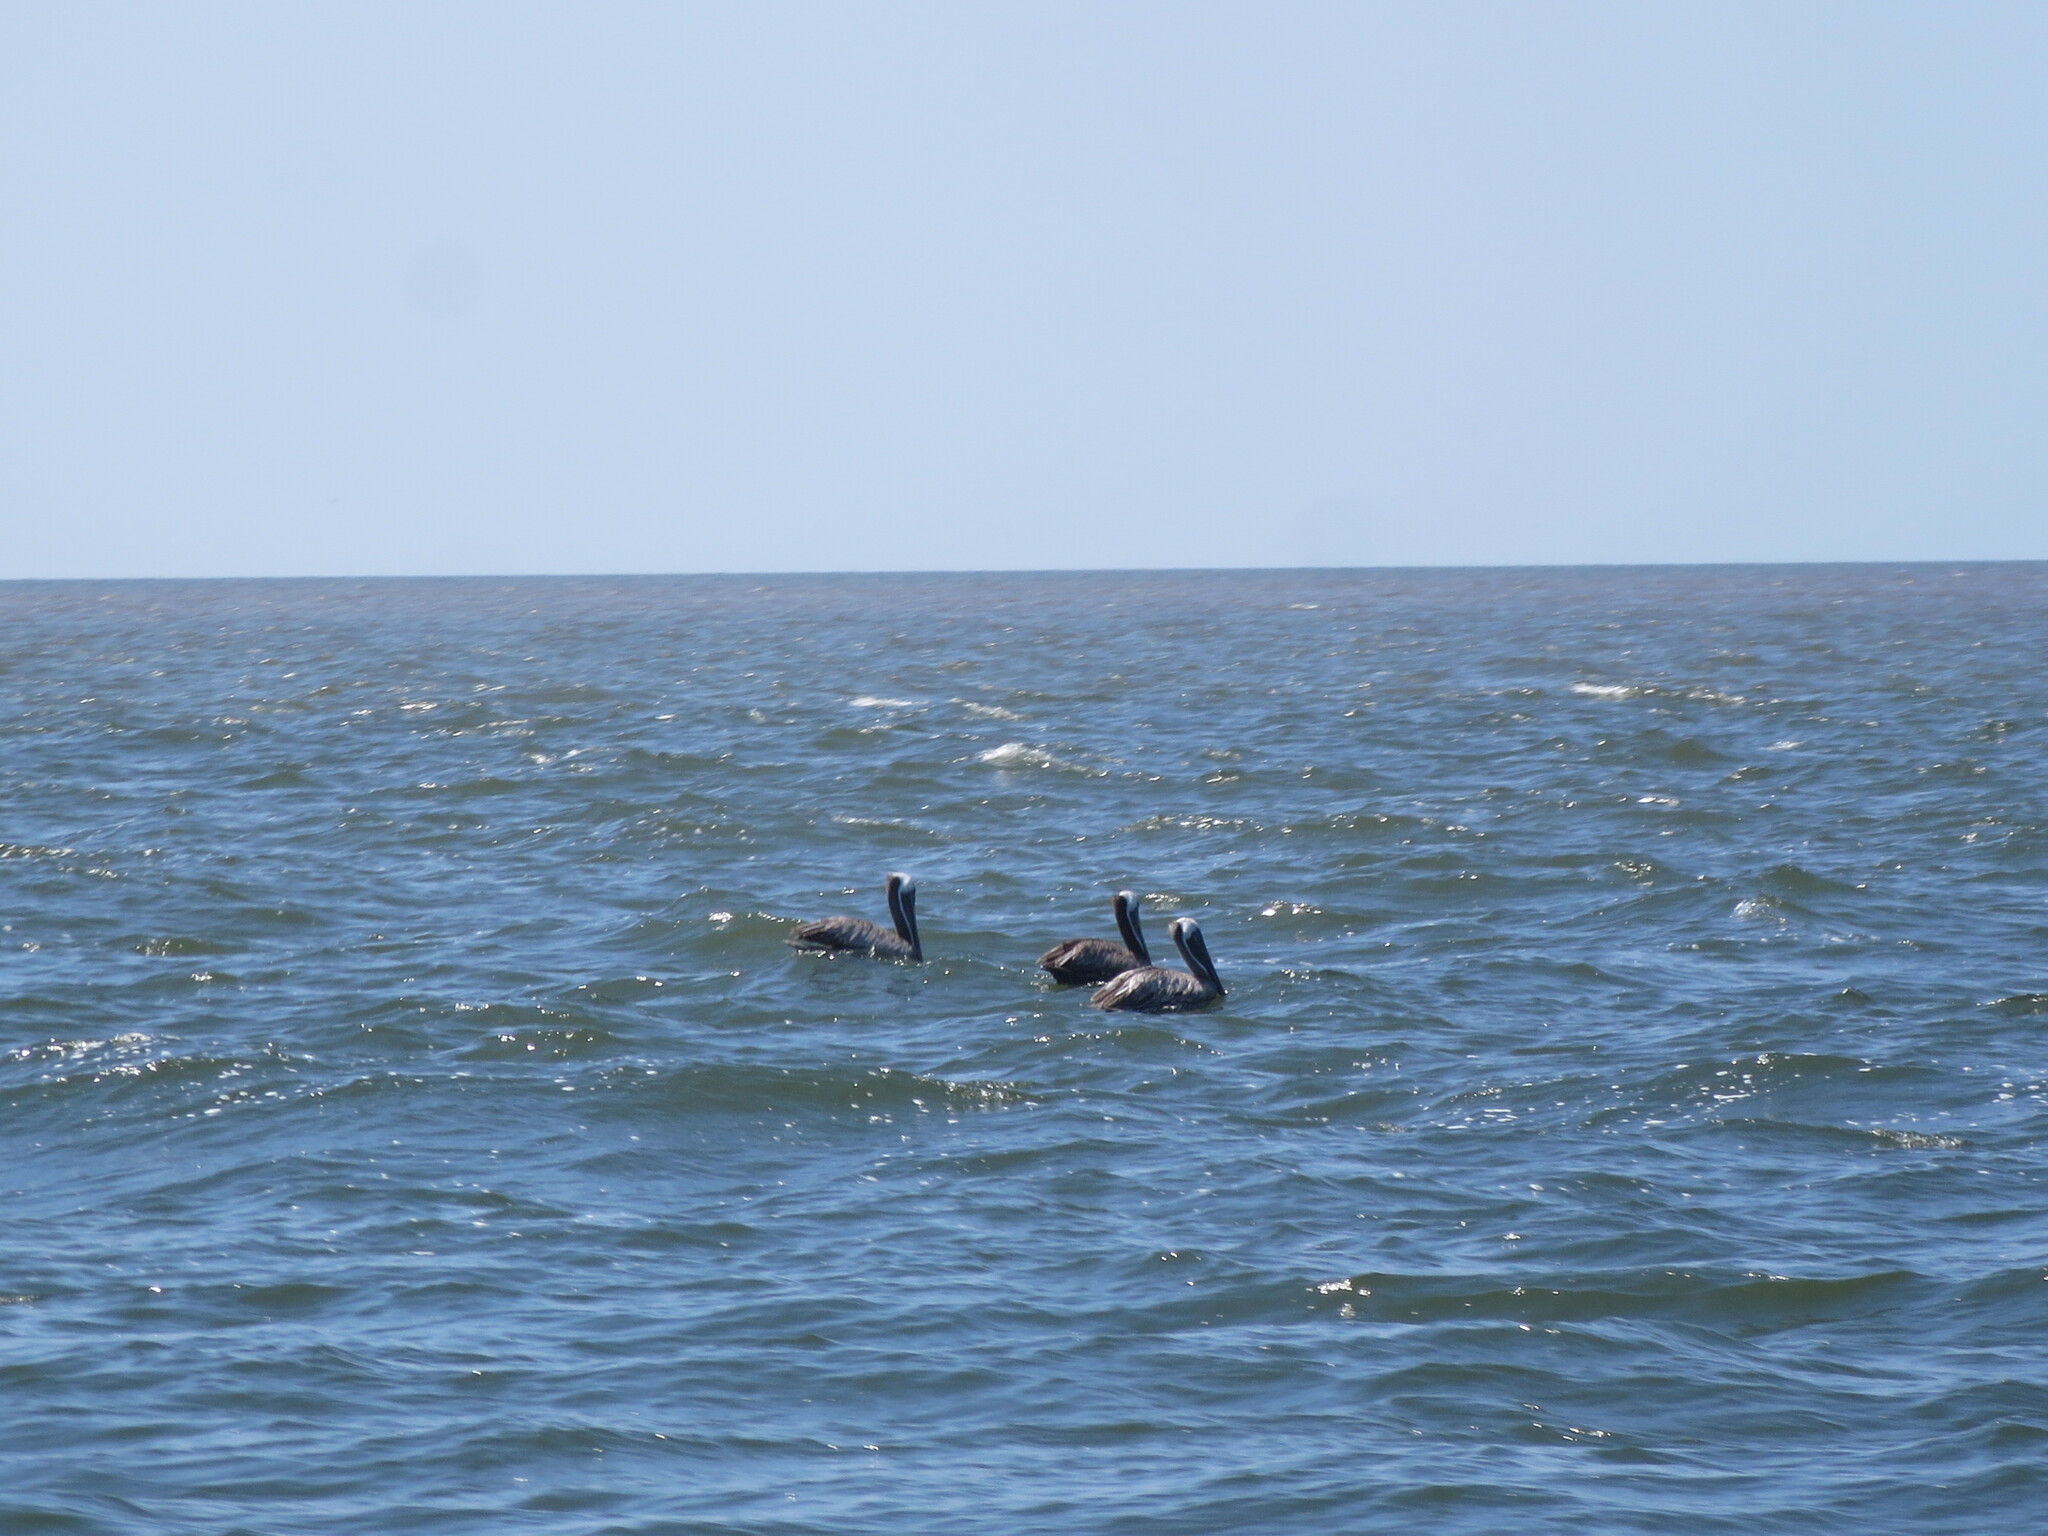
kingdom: Animalia
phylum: Chordata
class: Aves
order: Pelecaniformes
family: Pelecanidae
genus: Pelecanus
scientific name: Pelecanus occidentalis
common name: Brown pelican
